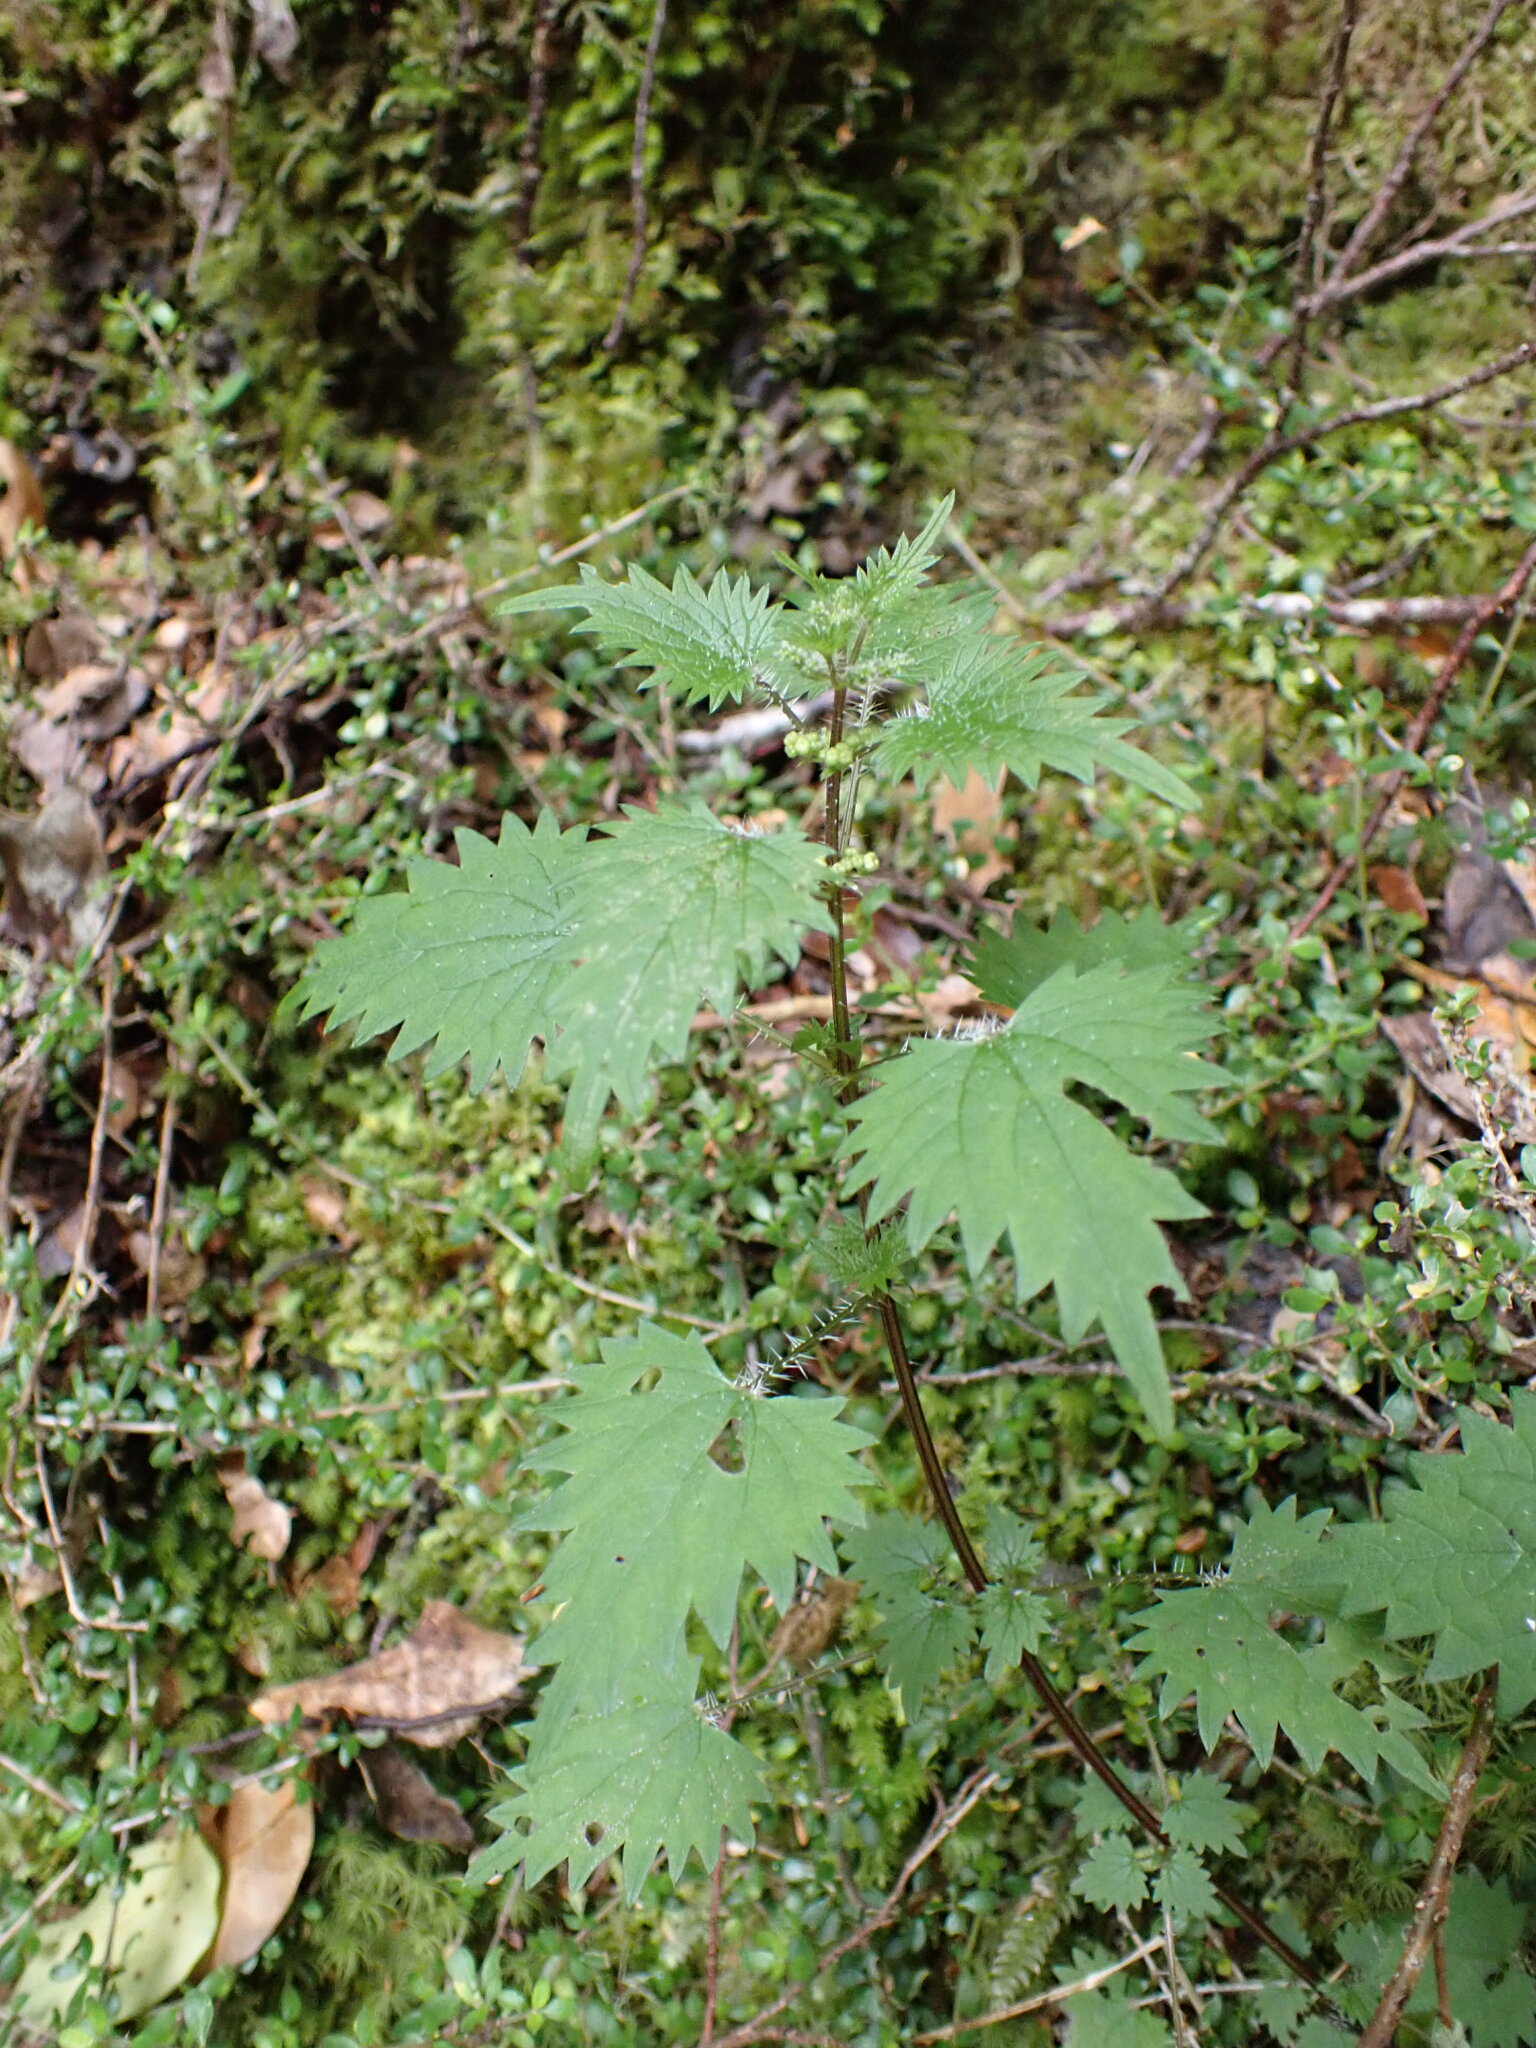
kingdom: Plantae
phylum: Tracheophyta
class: Magnoliopsida
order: Rosales
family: Urticaceae
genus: Urtica
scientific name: Urtica sykesii
